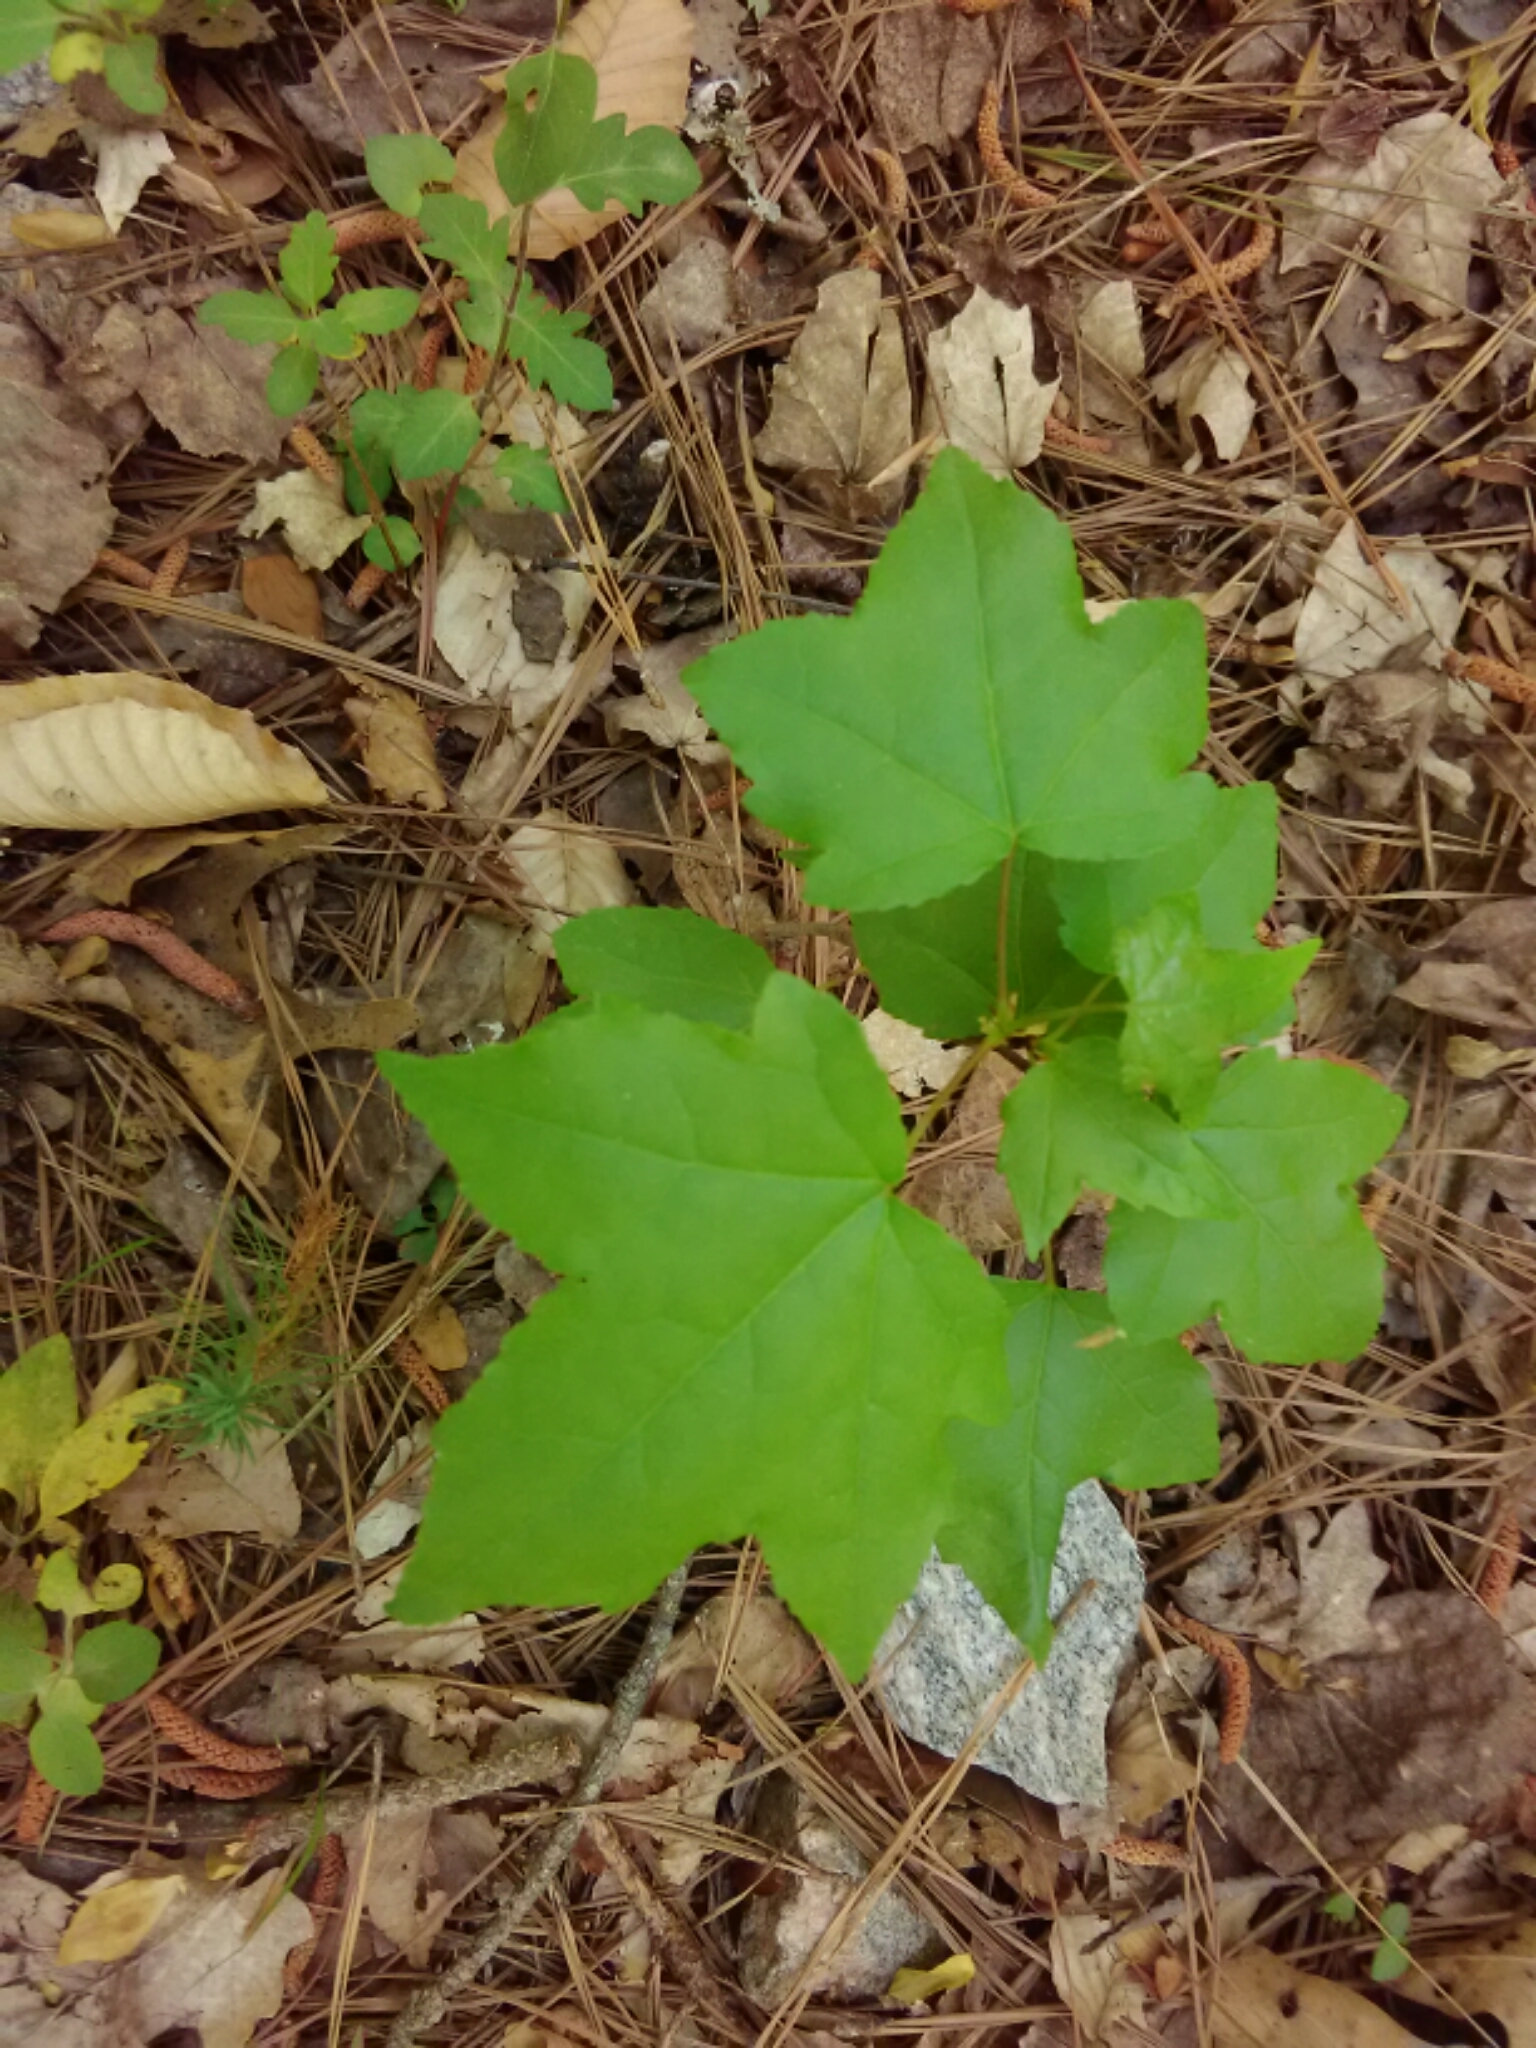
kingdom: Plantae
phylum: Tracheophyta
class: Magnoliopsida
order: Saxifragales
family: Altingiaceae
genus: Liquidambar
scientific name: Liquidambar styraciflua
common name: Sweet gum
